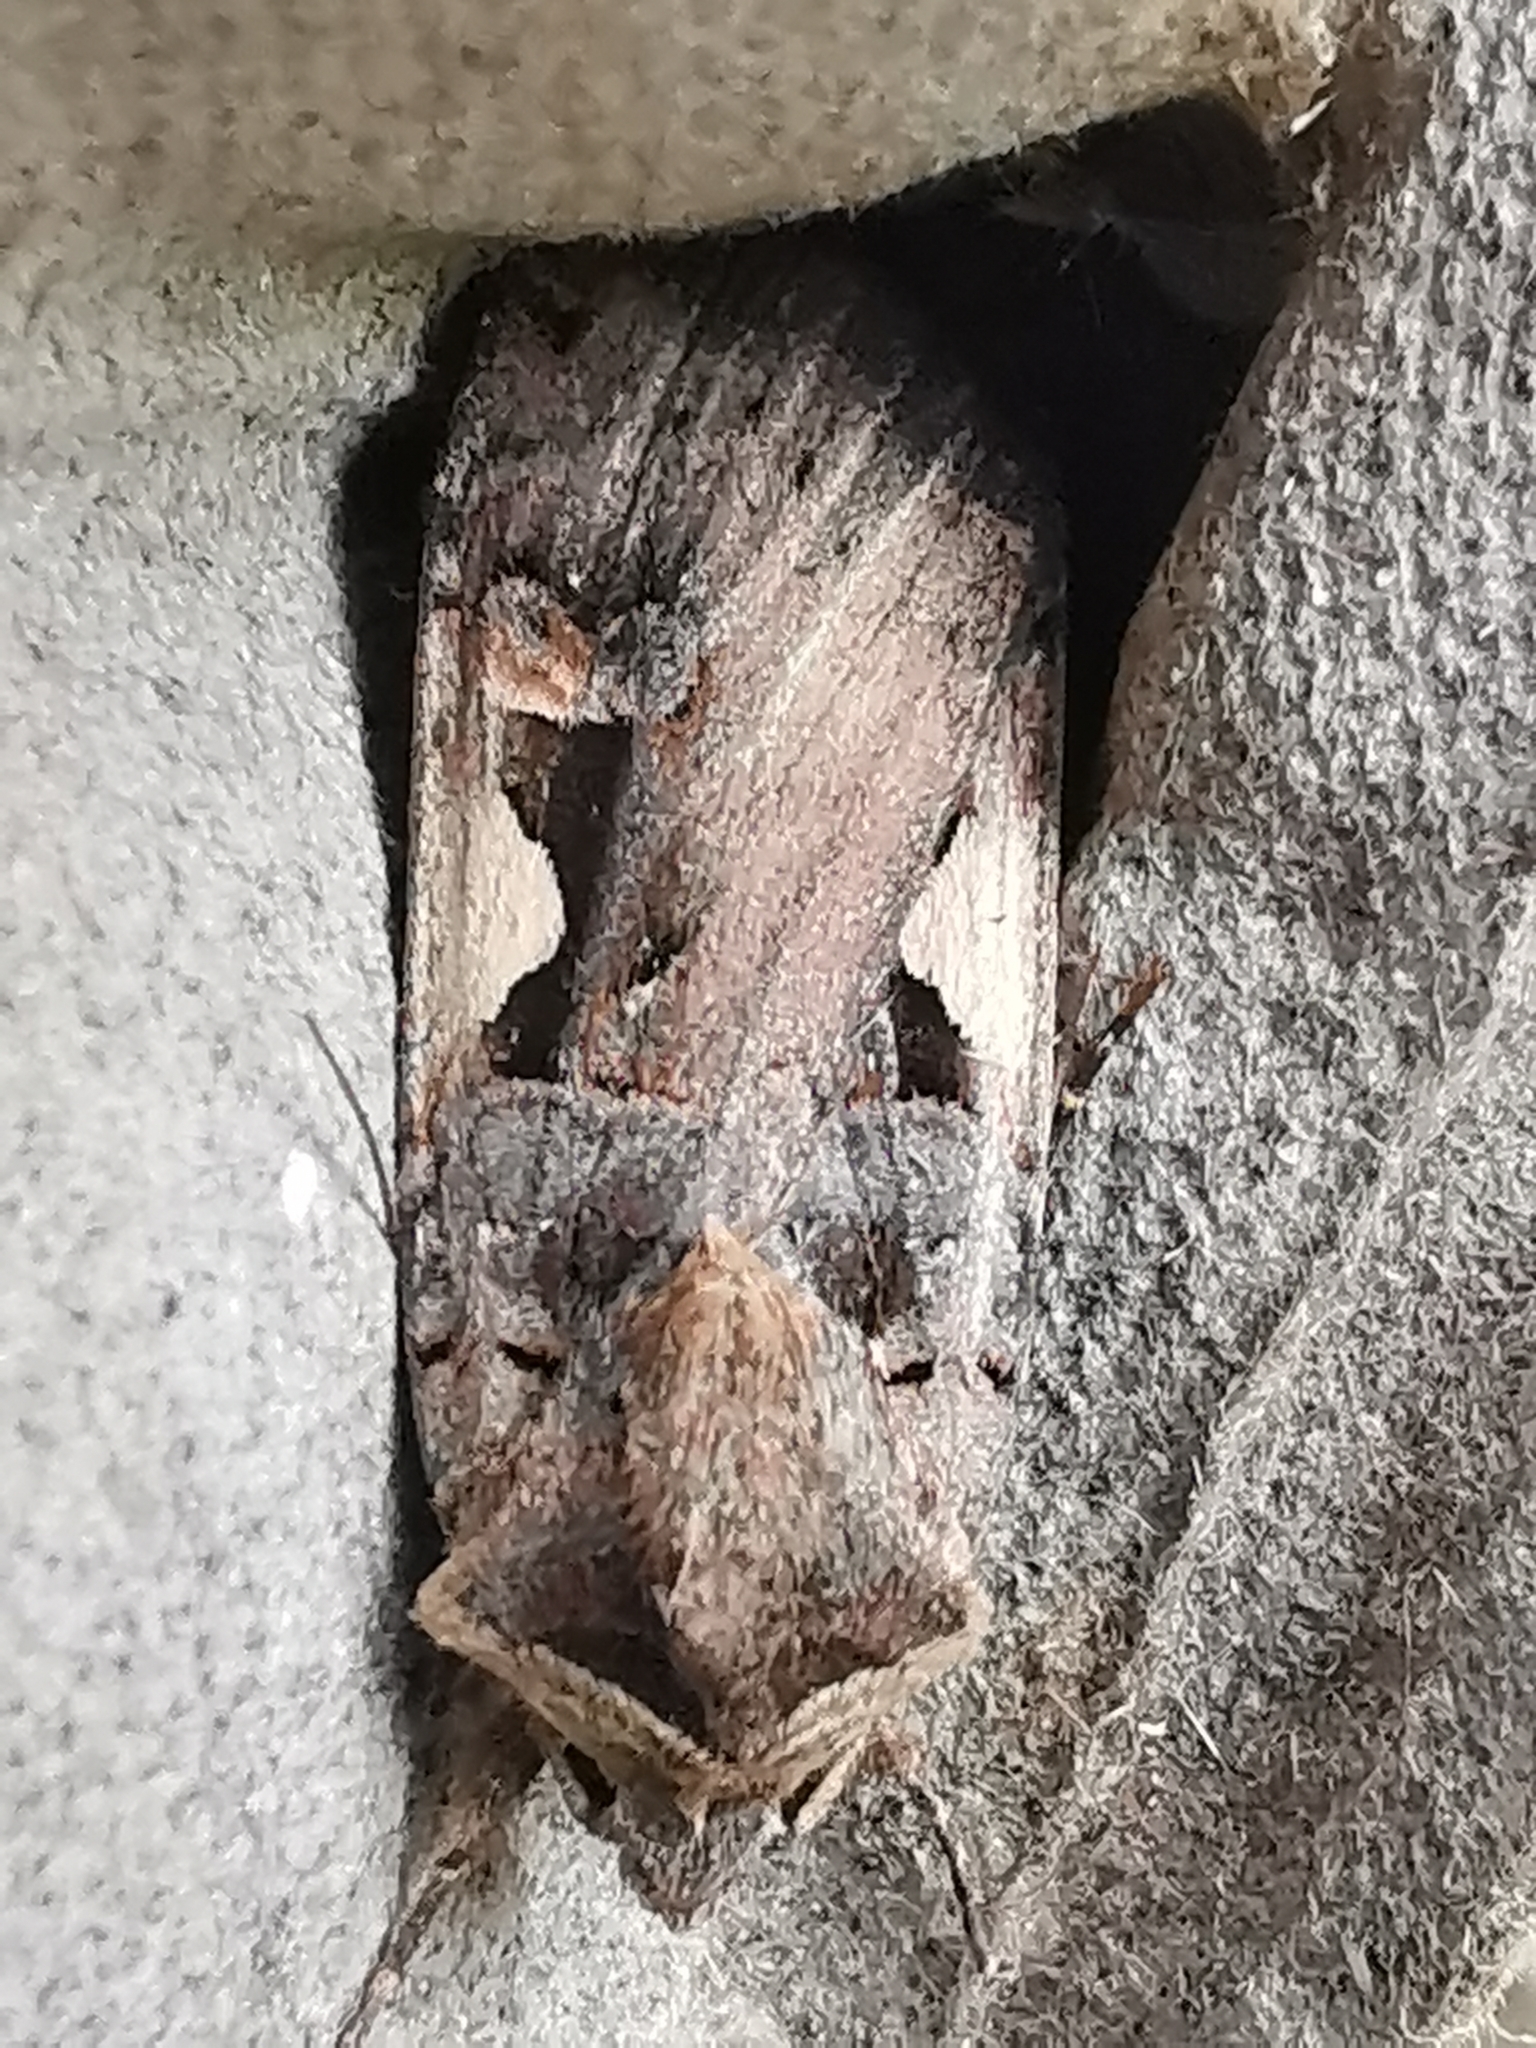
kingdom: Animalia
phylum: Arthropoda
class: Insecta
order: Lepidoptera
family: Noctuidae
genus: Xestia
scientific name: Xestia c-nigrum
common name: Setaceous hebrew character
